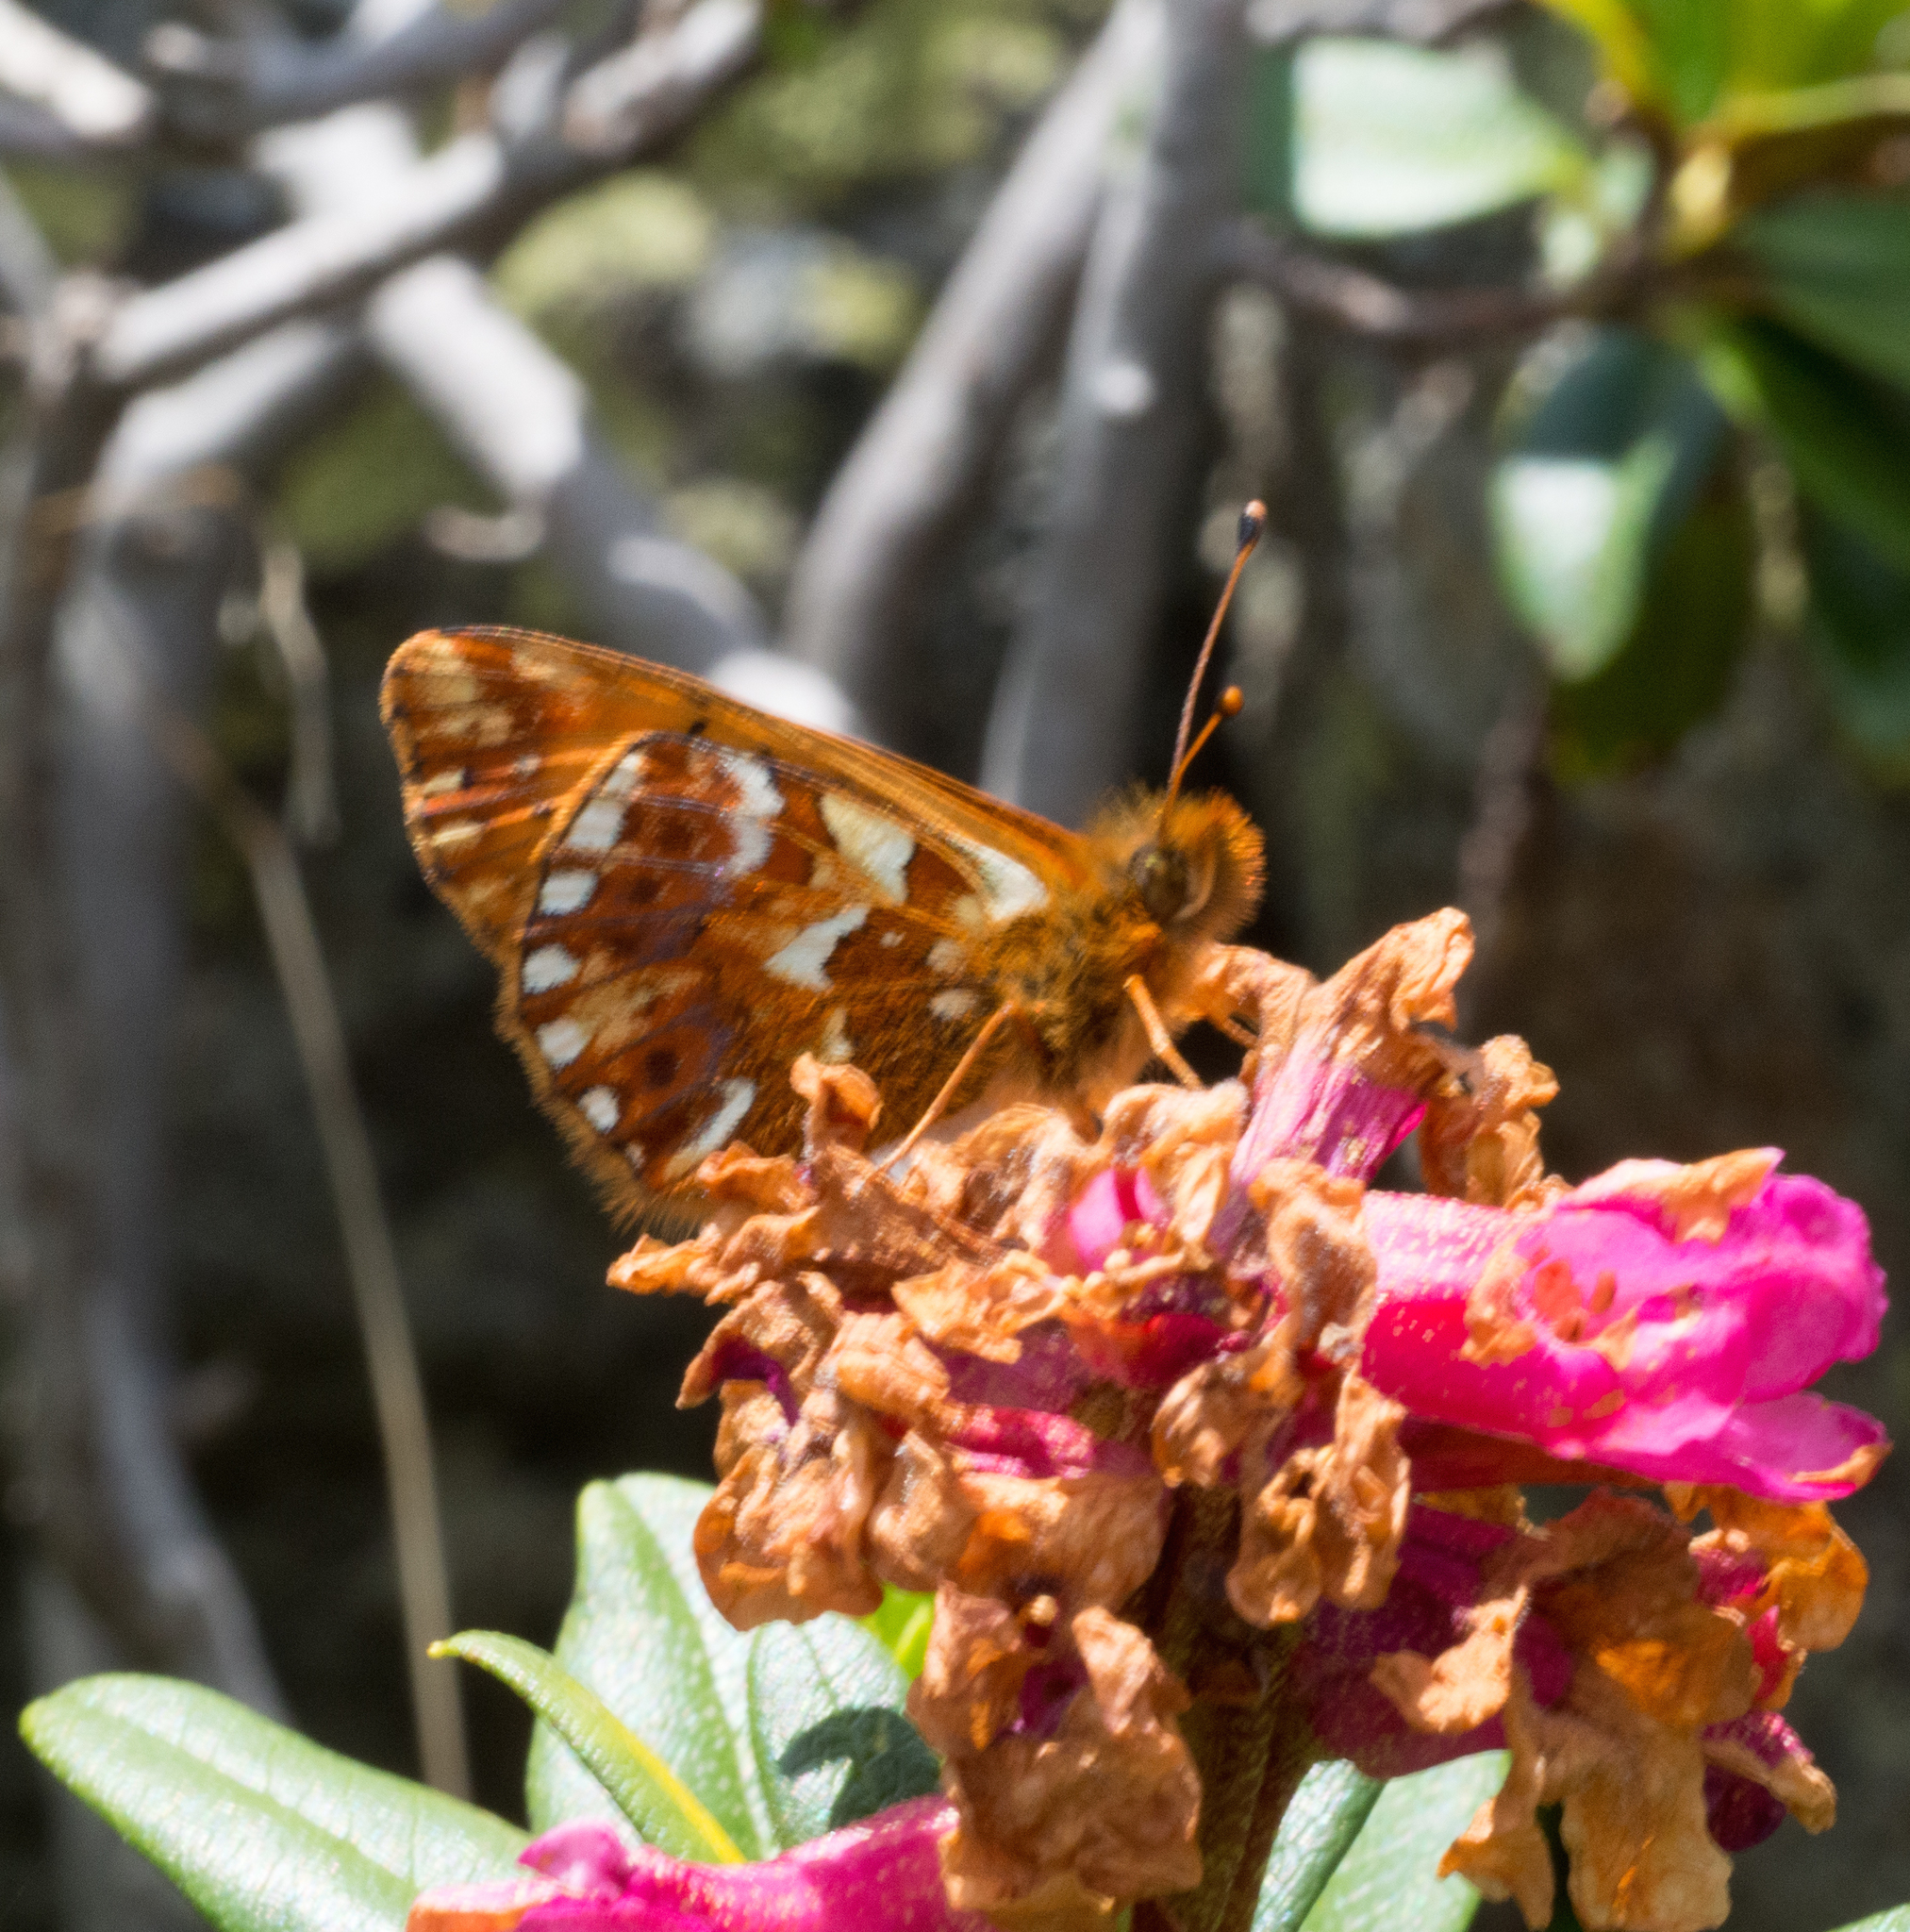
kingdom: Animalia
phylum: Arthropoda
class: Insecta
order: Lepidoptera
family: Nymphalidae
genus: Boloria
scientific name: Boloria pales
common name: Shepherd's fritillary
